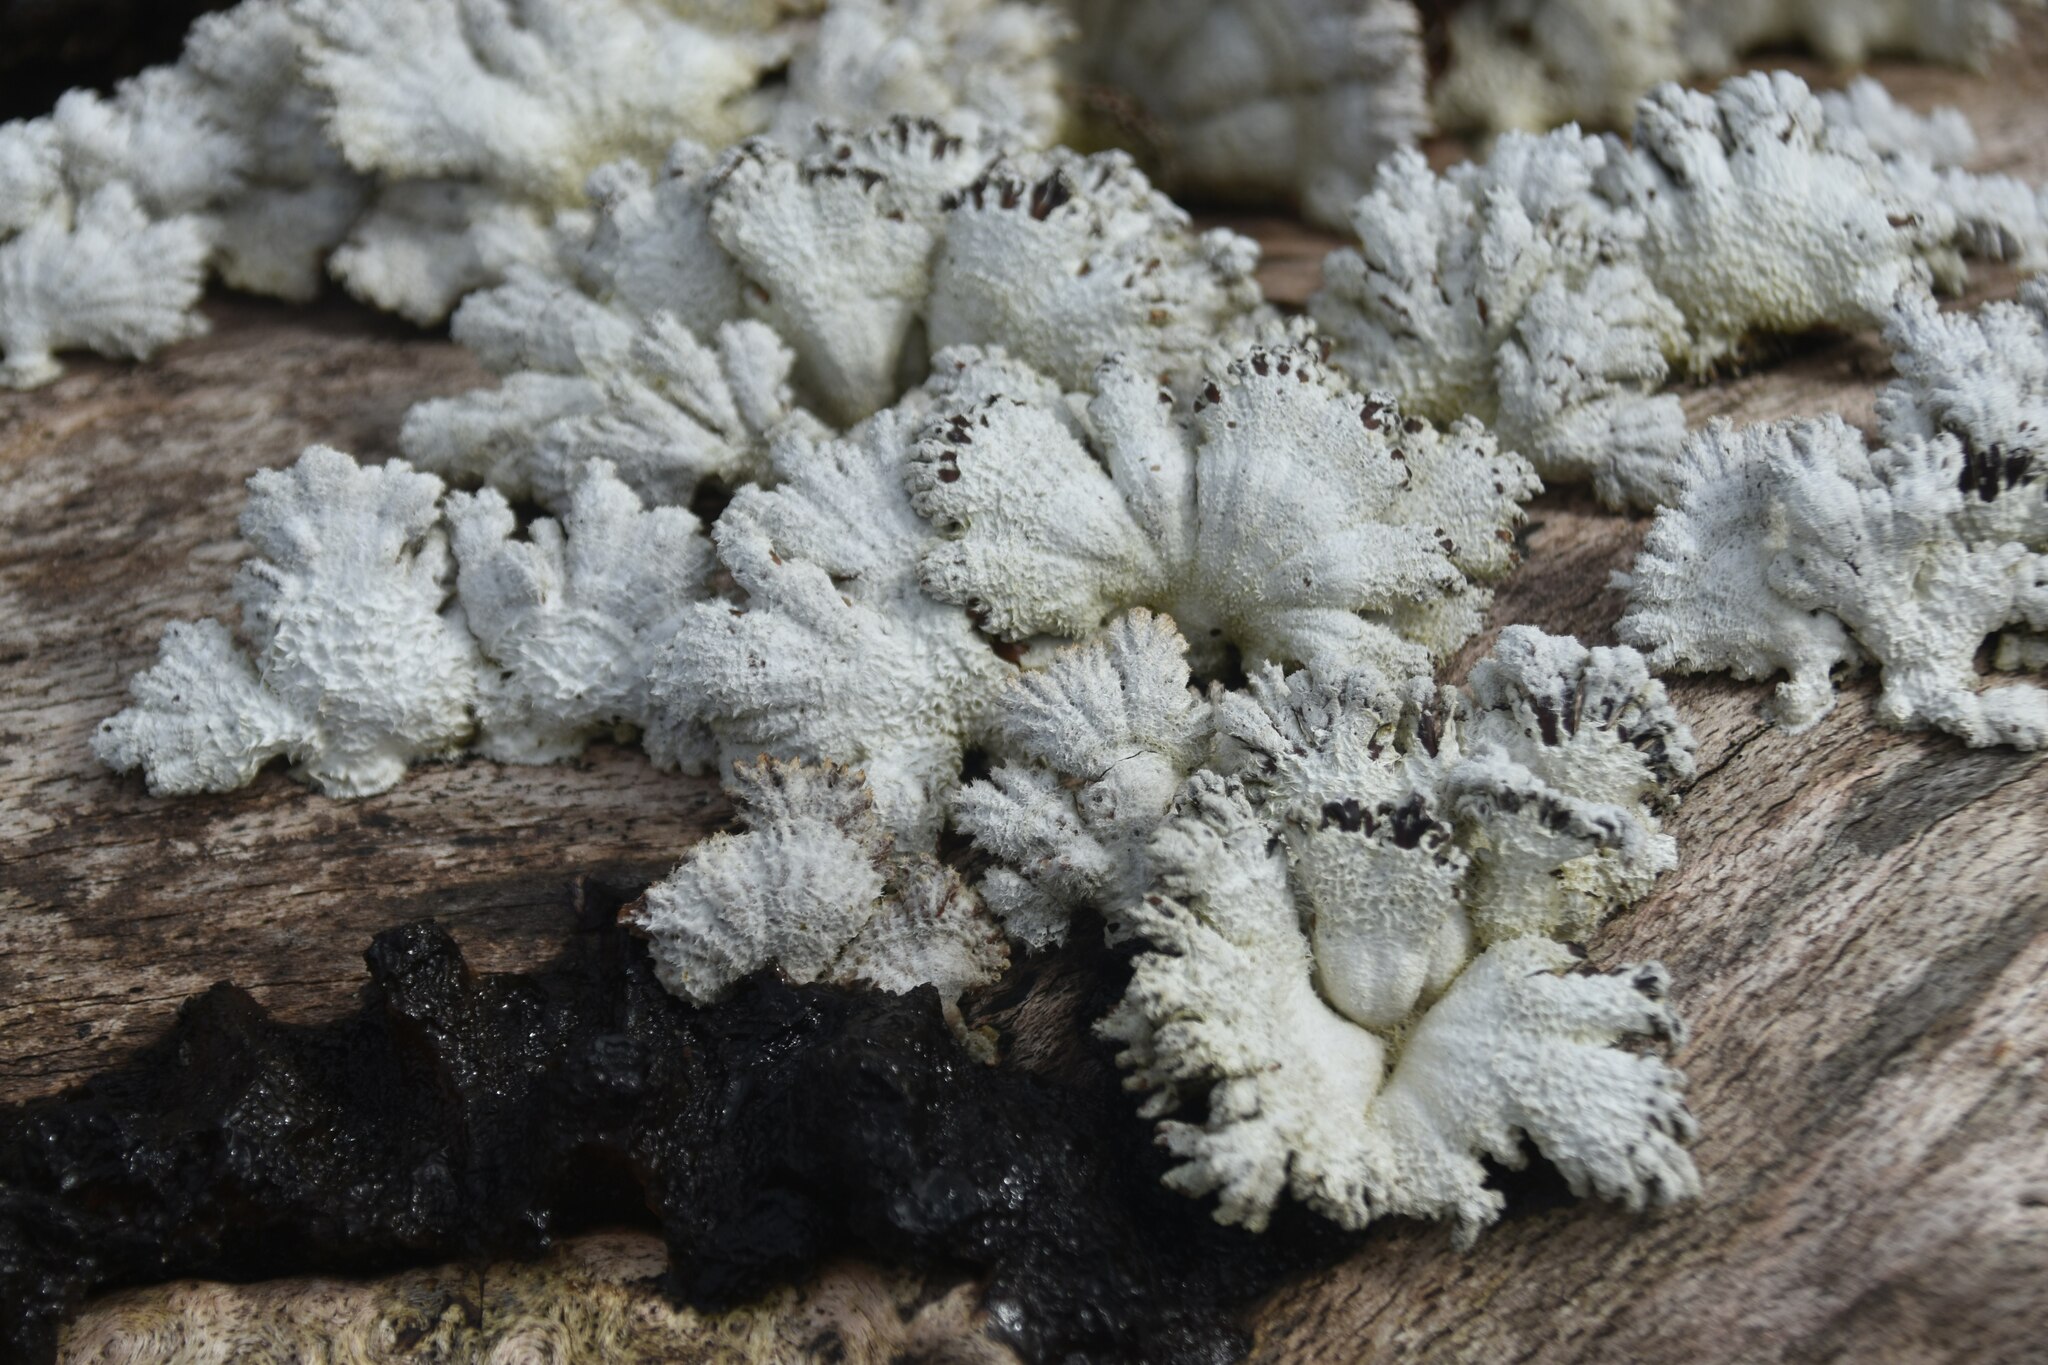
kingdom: Fungi
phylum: Basidiomycota
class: Agaricomycetes
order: Agaricales
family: Schizophyllaceae
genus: Schizophyllum
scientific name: Schizophyllum commune
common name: Common porecrust
